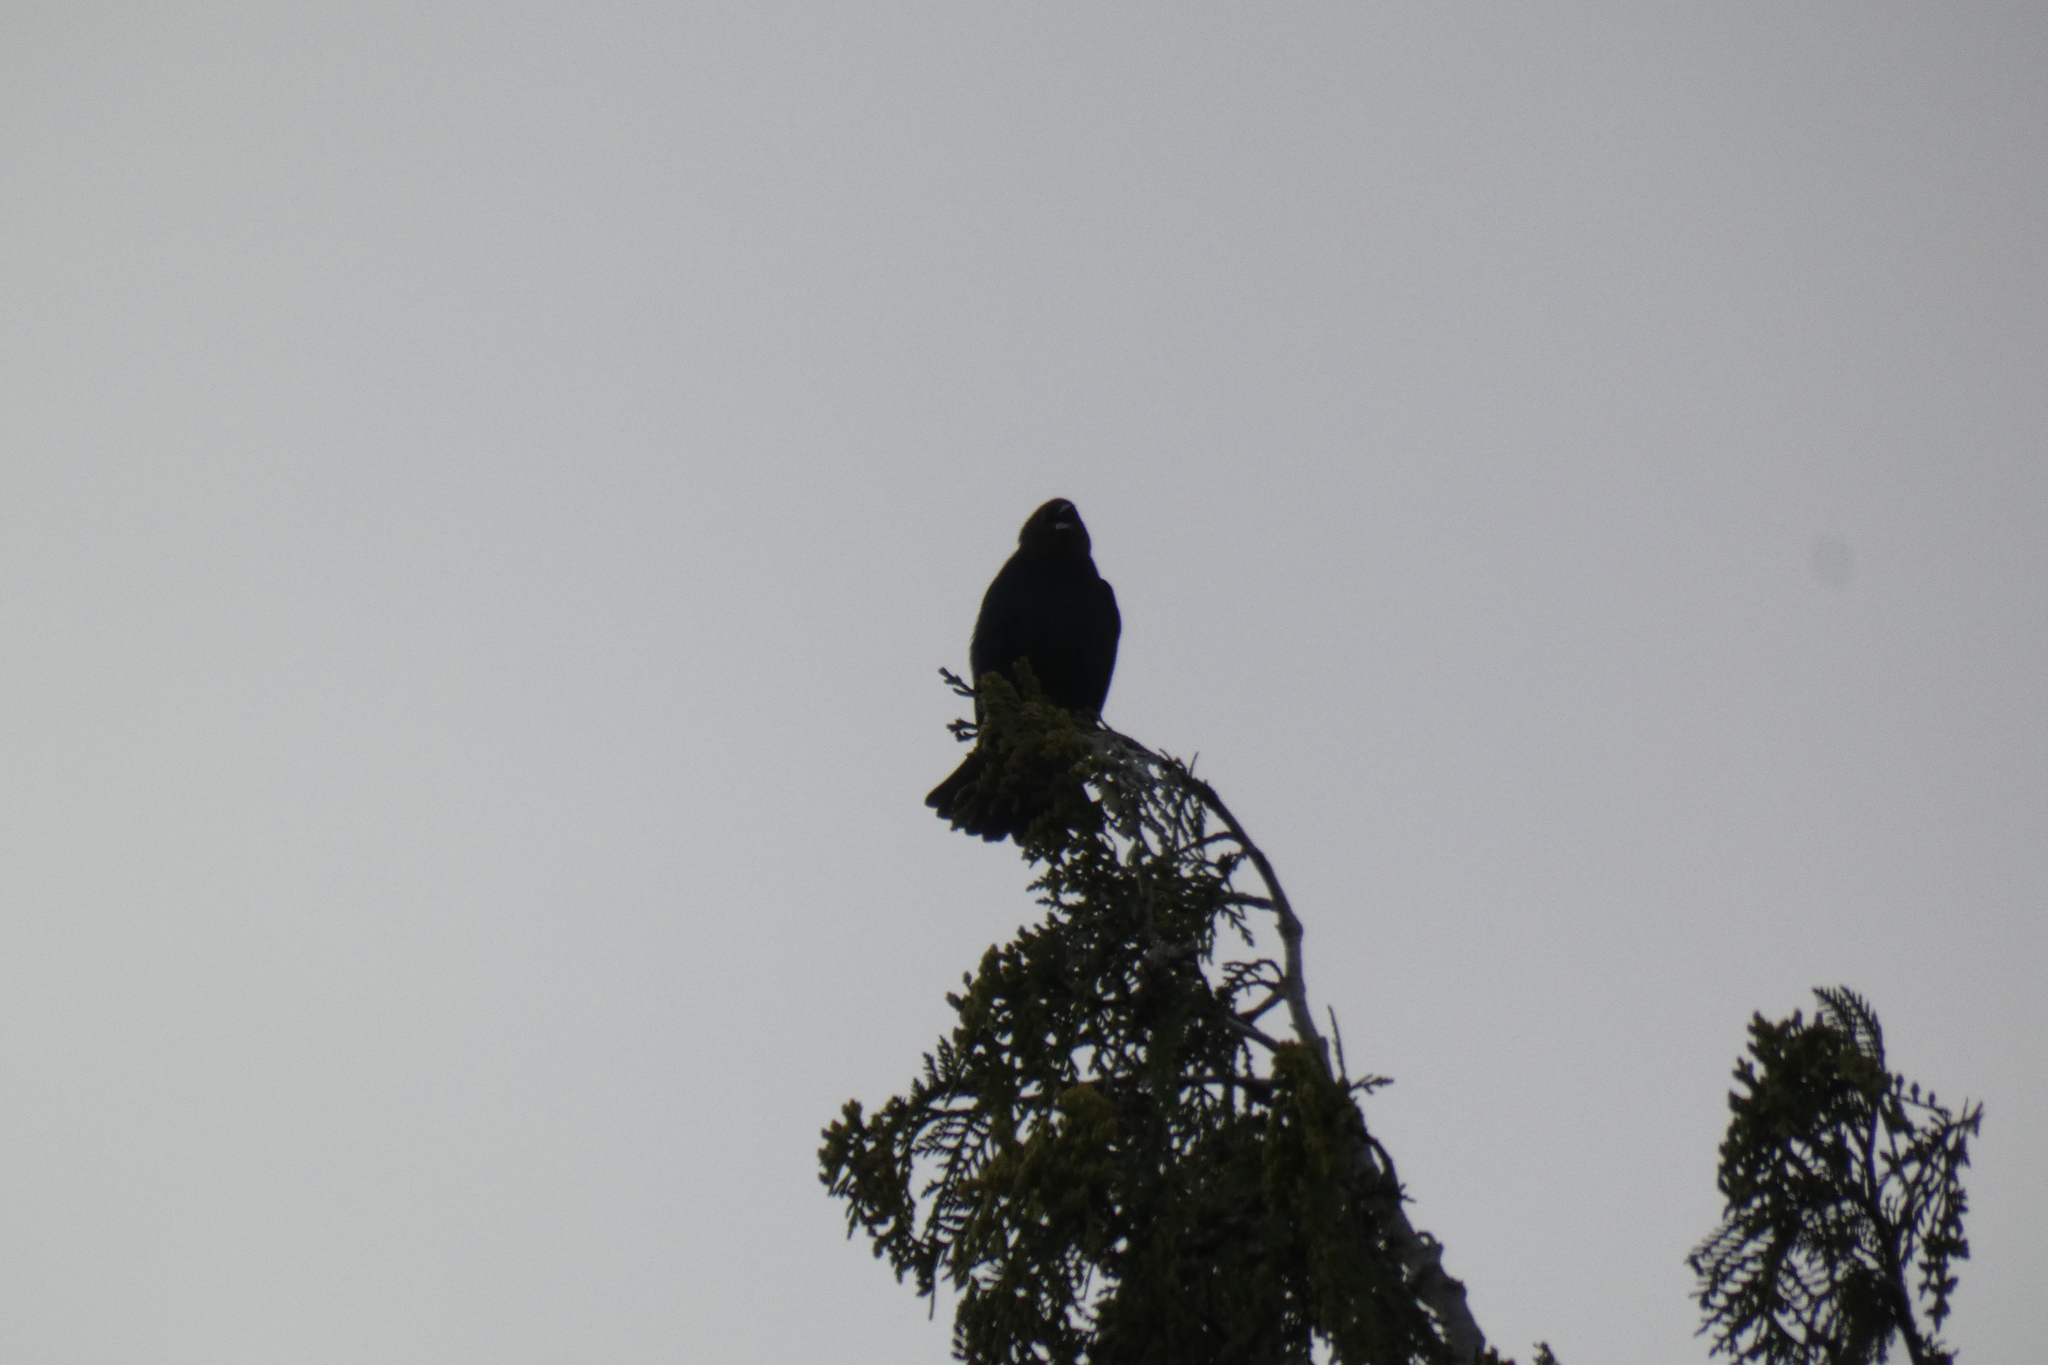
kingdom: Animalia
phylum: Chordata
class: Aves
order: Passeriformes
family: Icteridae
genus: Molothrus
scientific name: Molothrus ater
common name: Brown-headed cowbird
